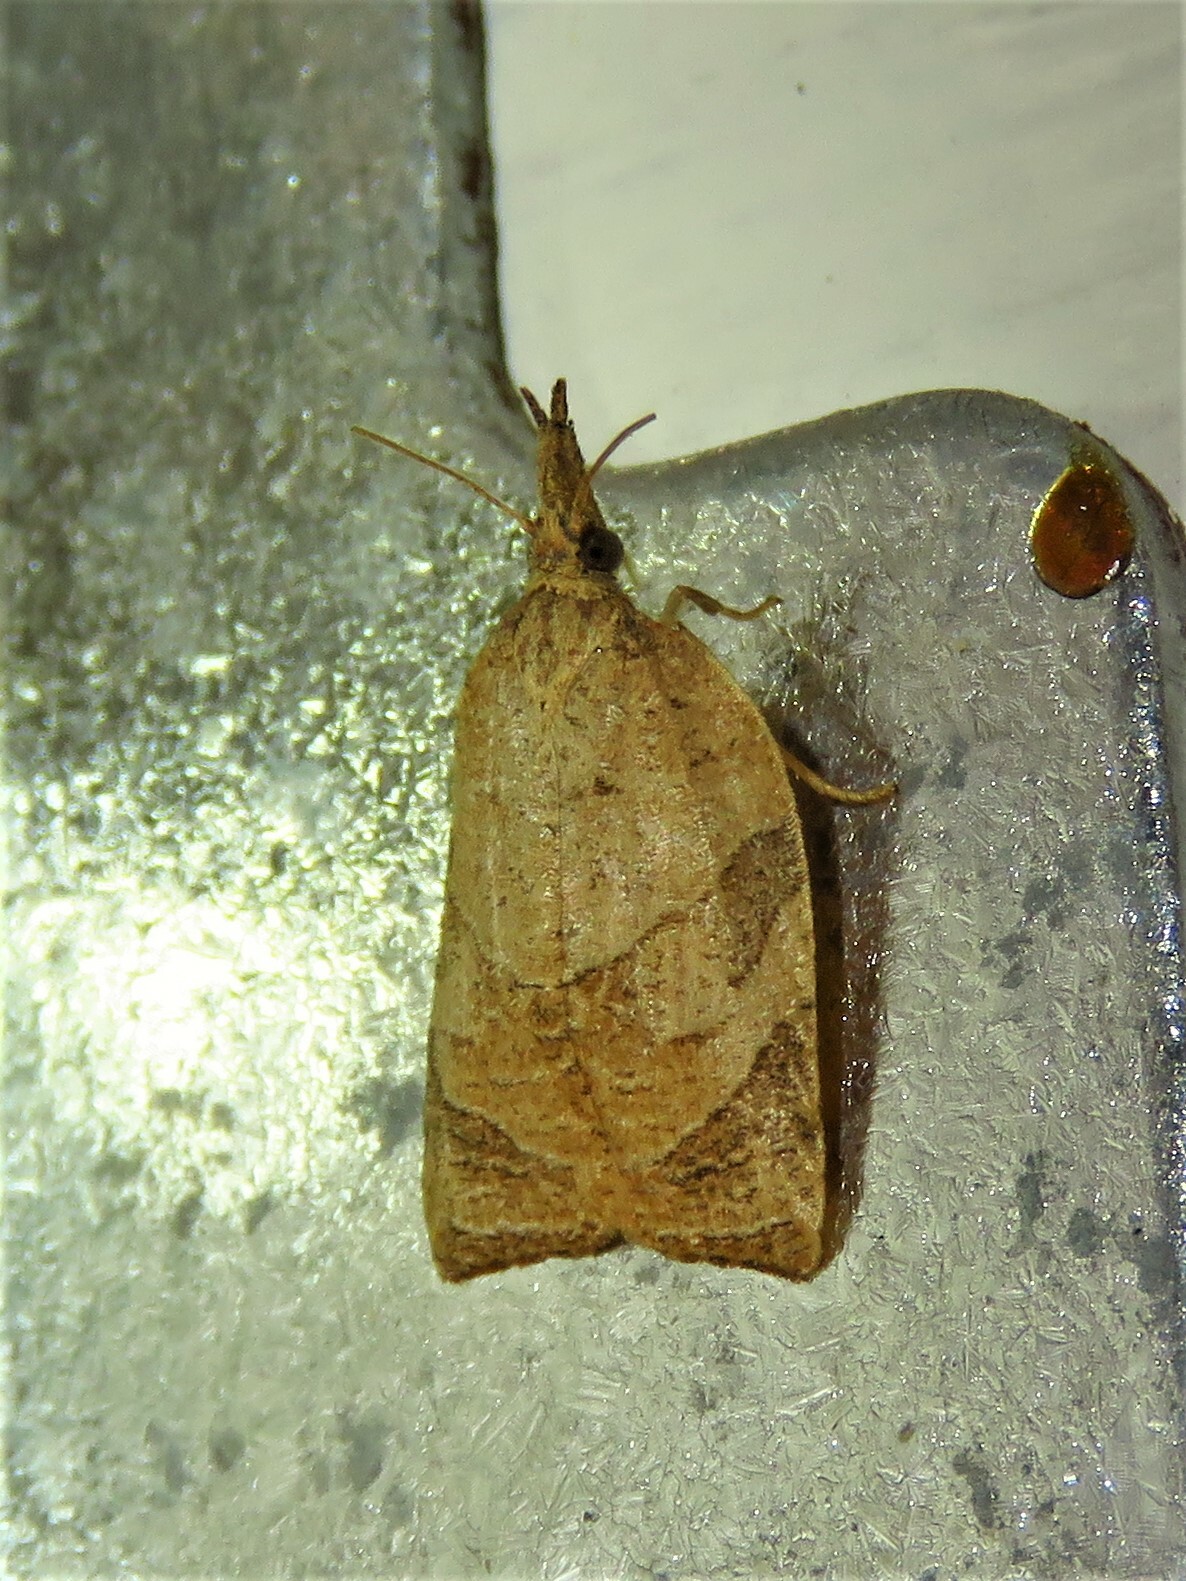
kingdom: Animalia
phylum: Arthropoda
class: Insecta
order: Lepidoptera
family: Tortricidae
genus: Platynota
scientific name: Platynota rostrana
